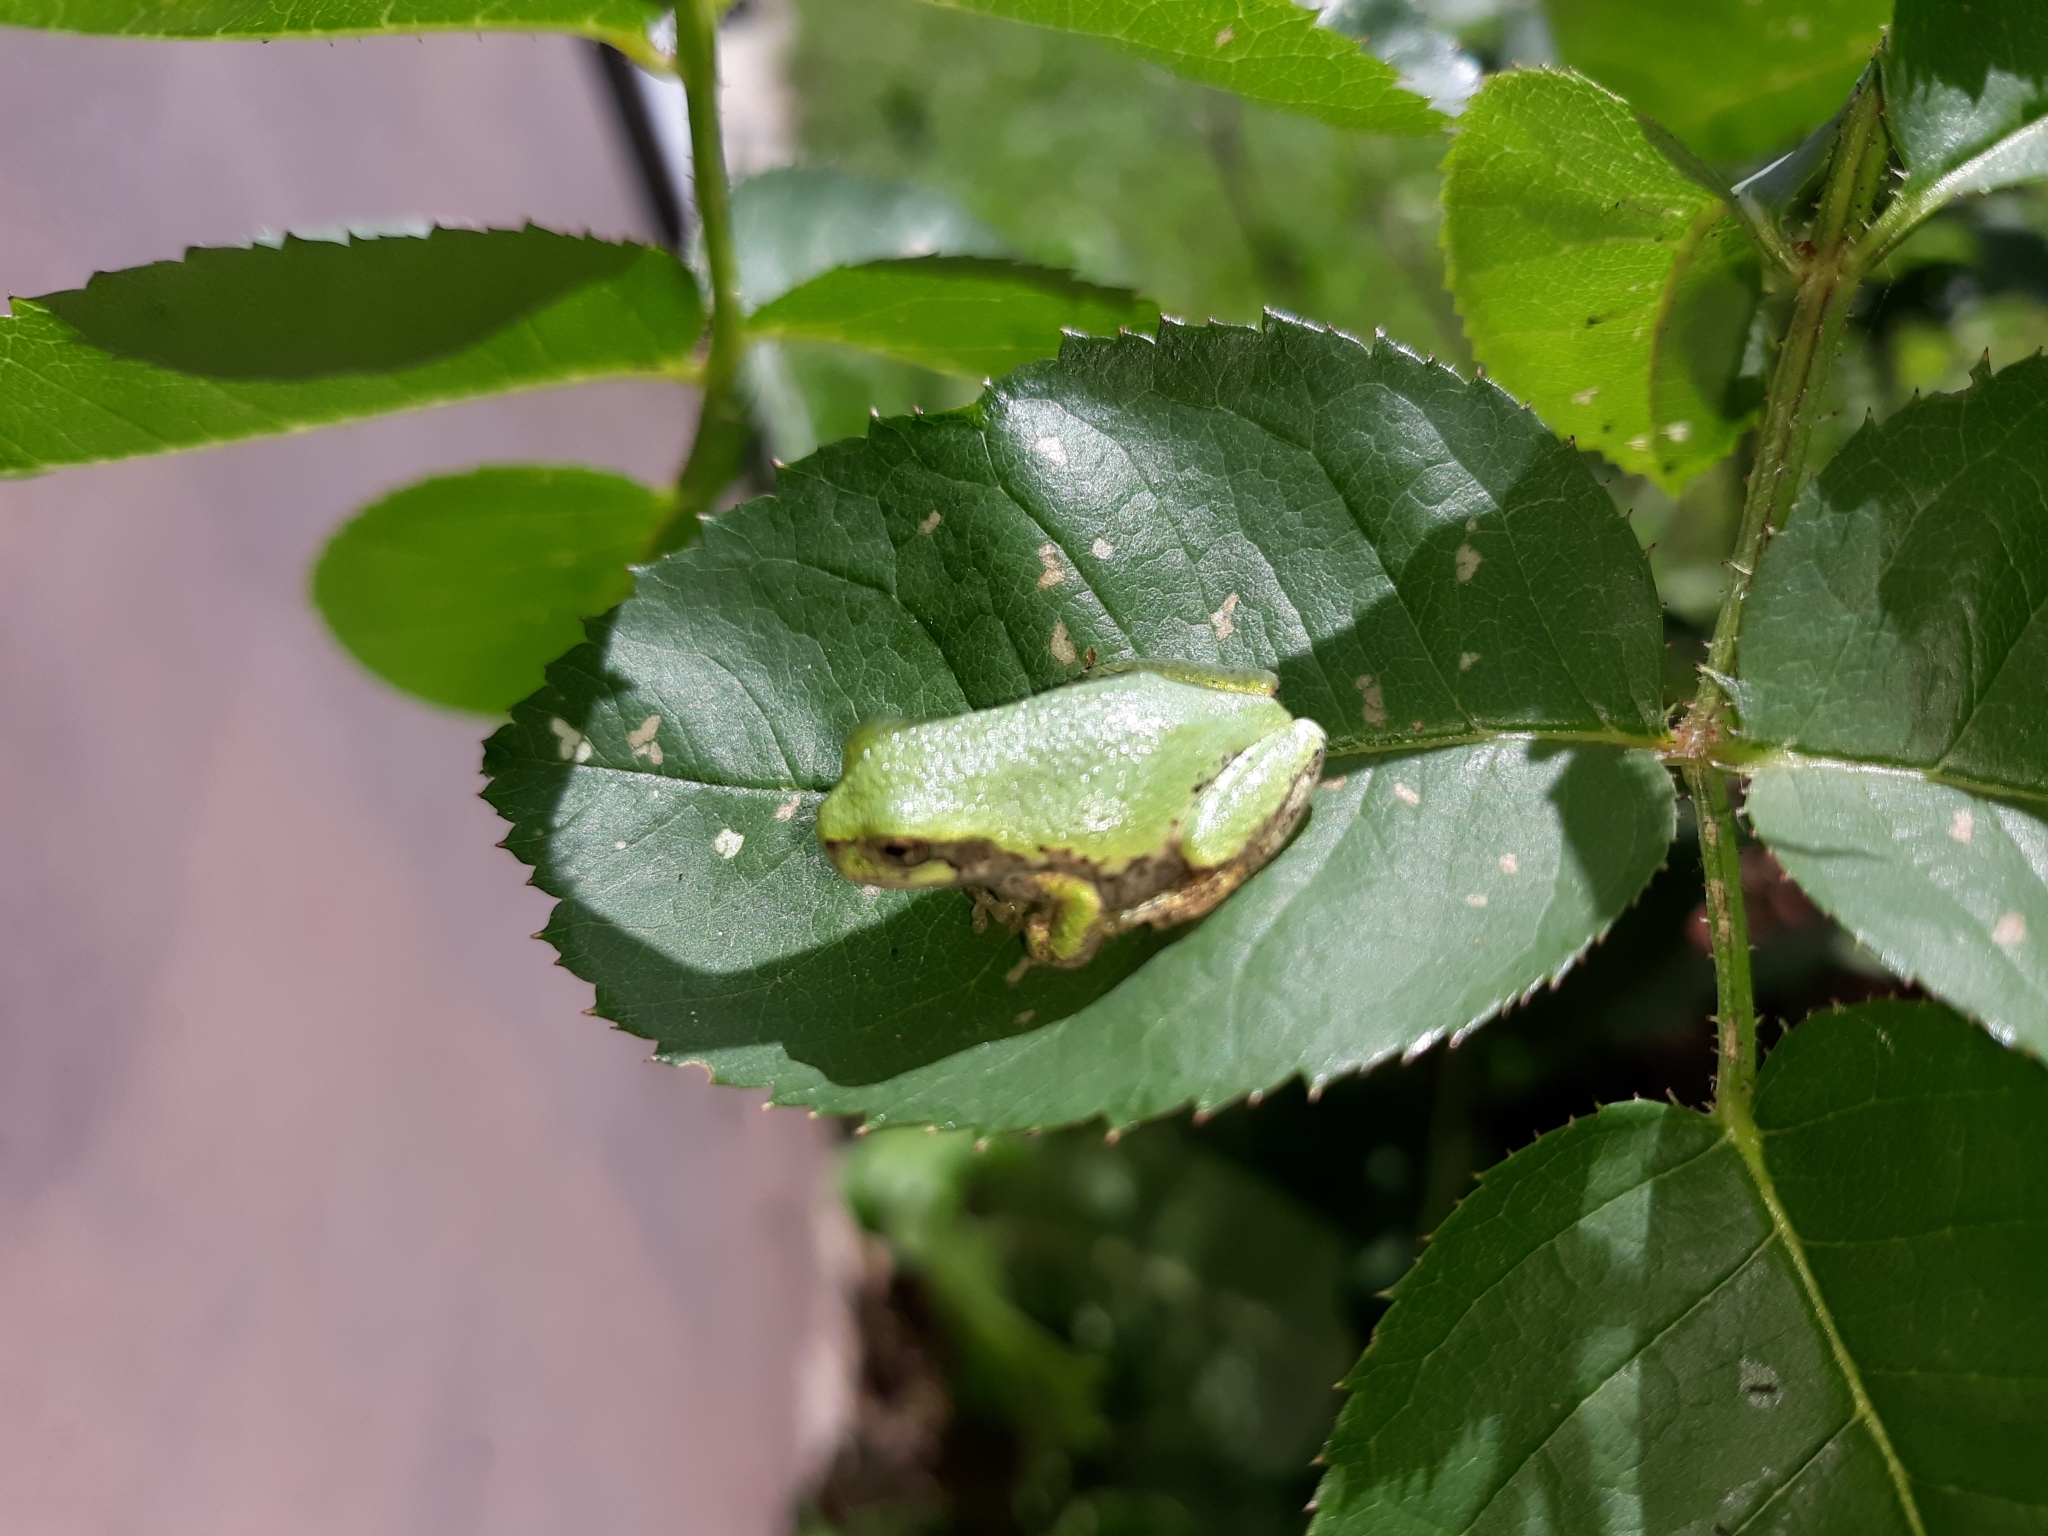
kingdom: Animalia
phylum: Chordata
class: Amphibia
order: Anura
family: Hylidae
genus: Hyla
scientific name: Hyla
